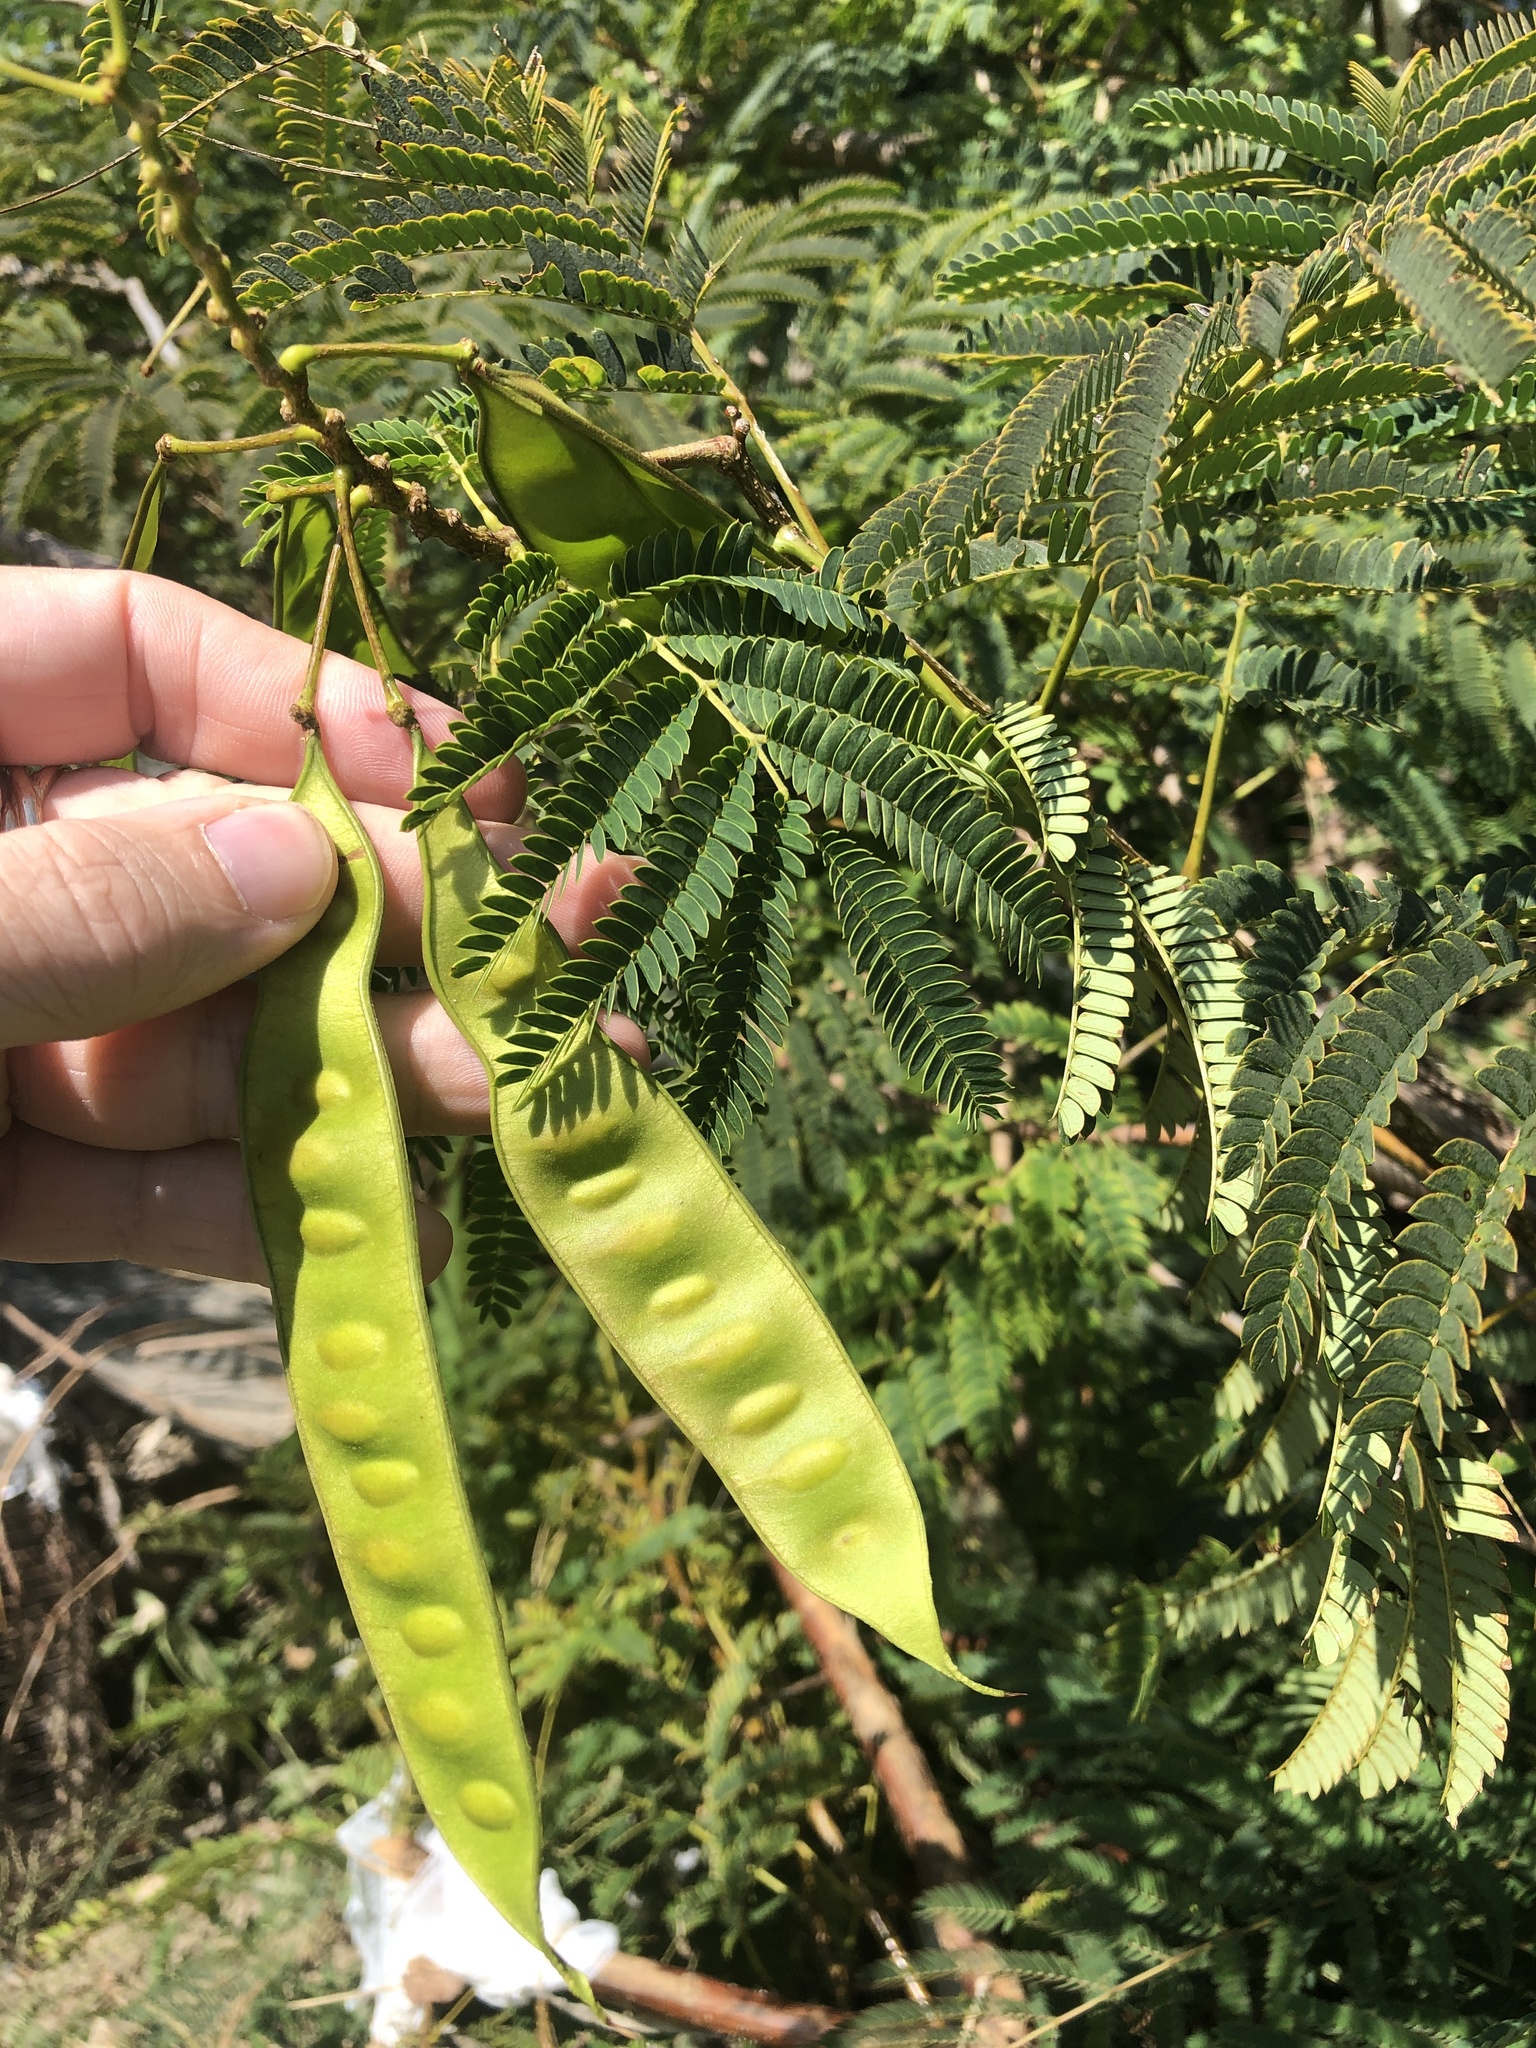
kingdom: Plantae
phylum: Tracheophyta
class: Magnoliopsida
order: Fabales
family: Fabaceae
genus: Albizia
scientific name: Albizia julibrissin
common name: Silktree
